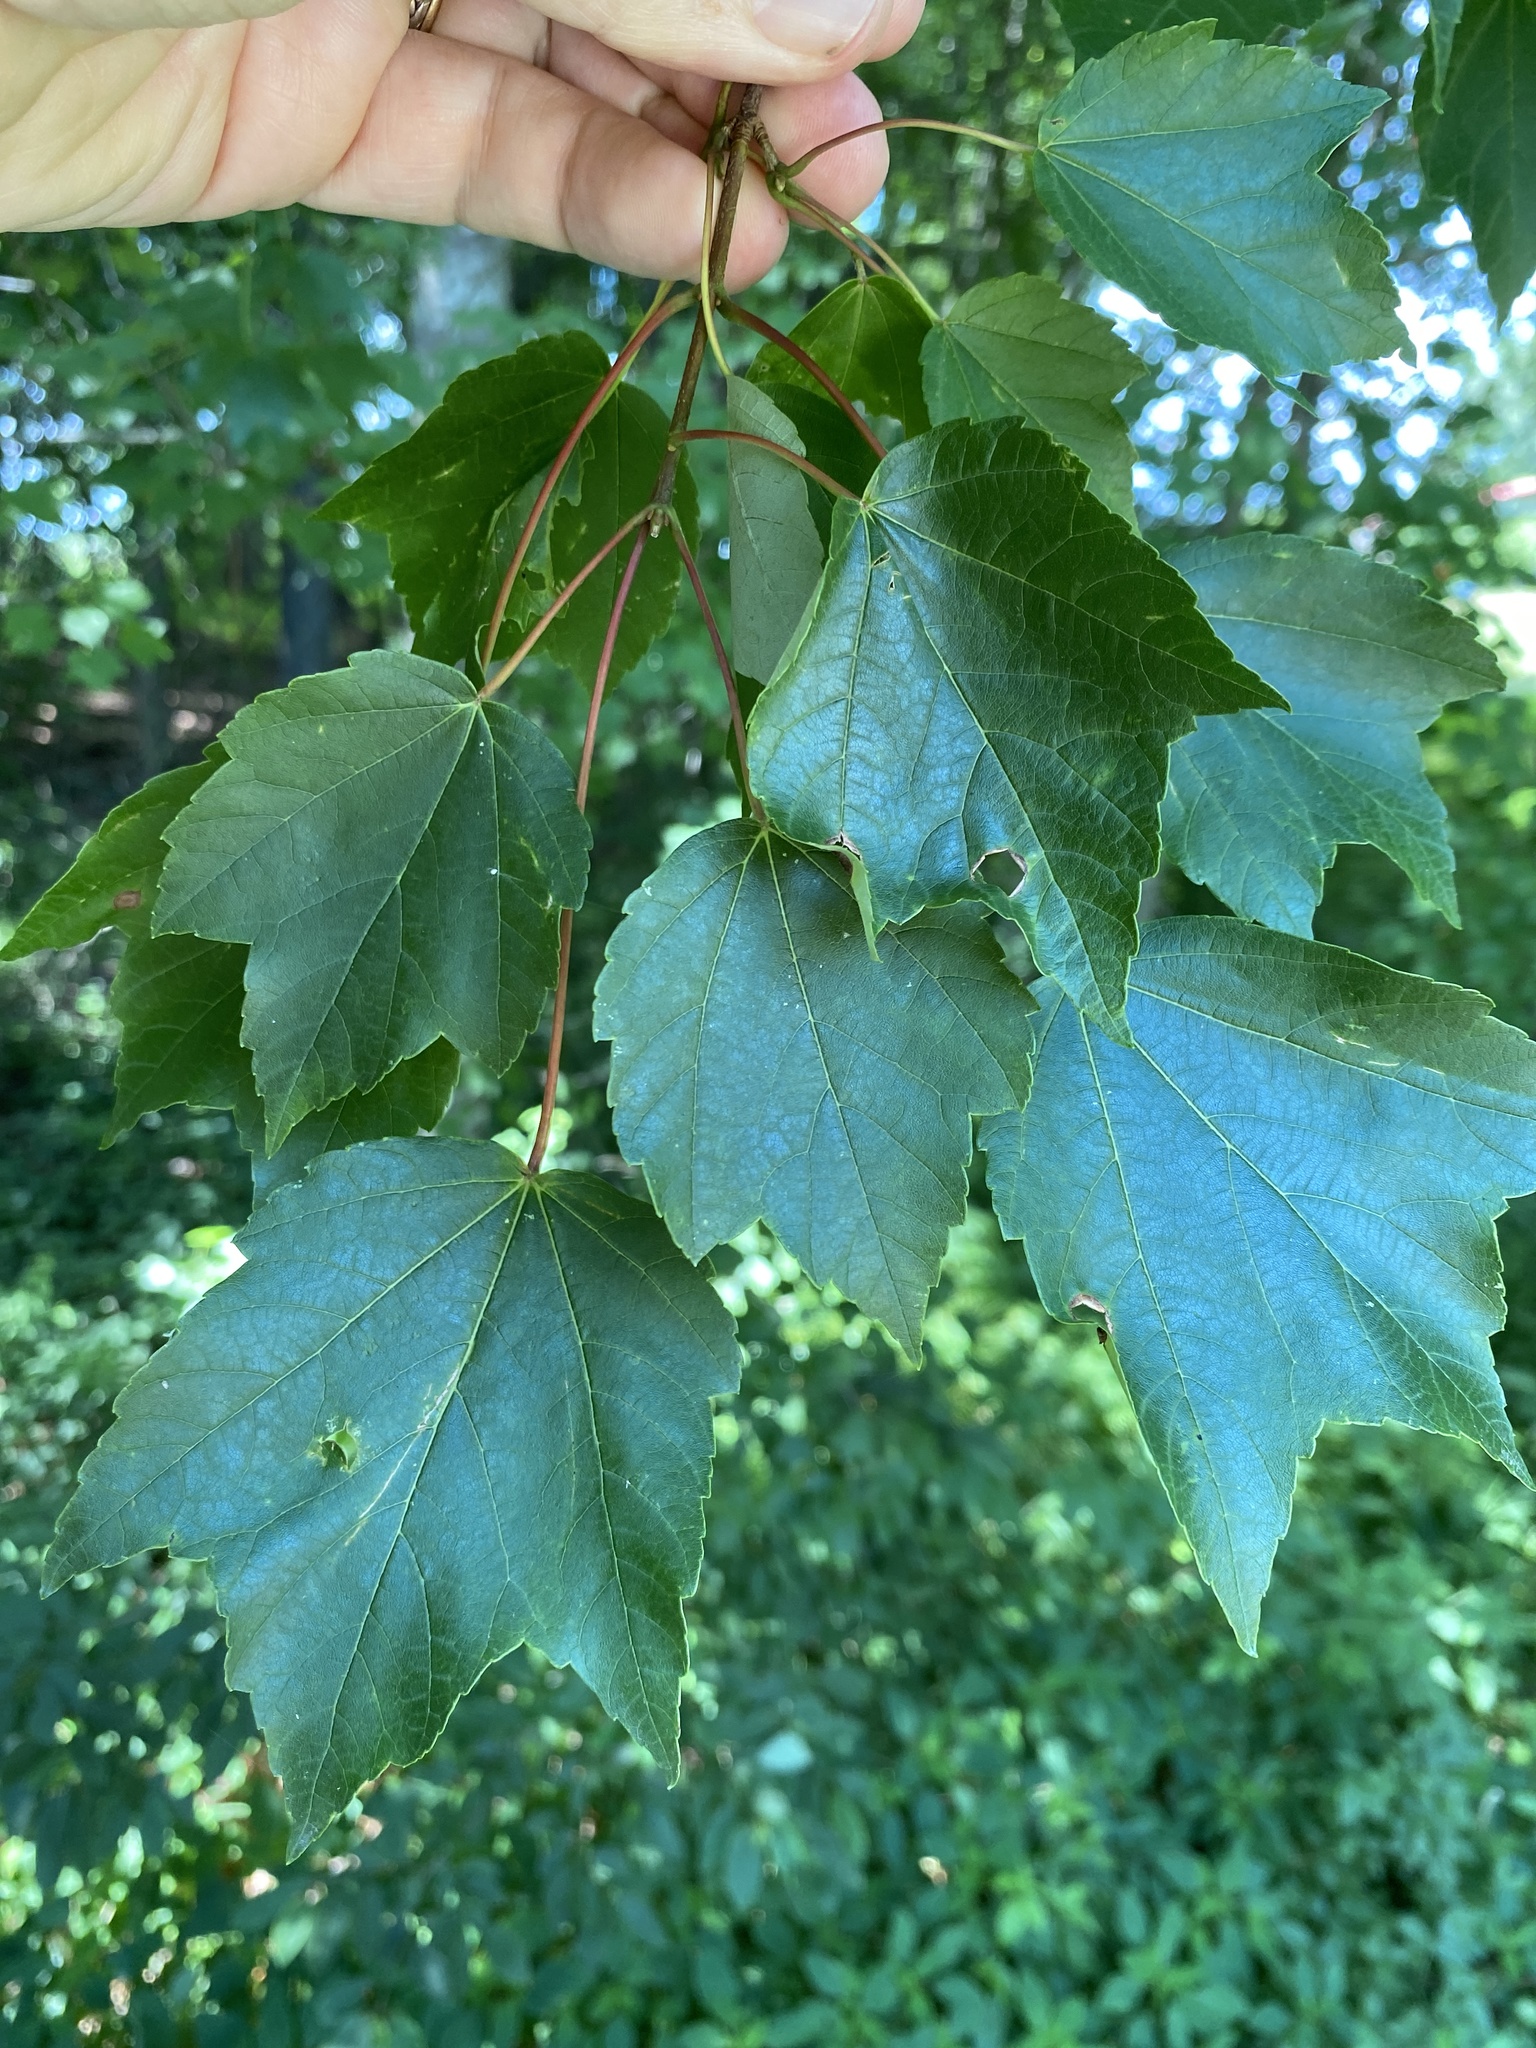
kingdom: Plantae
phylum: Tracheophyta
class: Magnoliopsida
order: Sapindales
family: Sapindaceae
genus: Acer
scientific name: Acer rubrum
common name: Red maple
